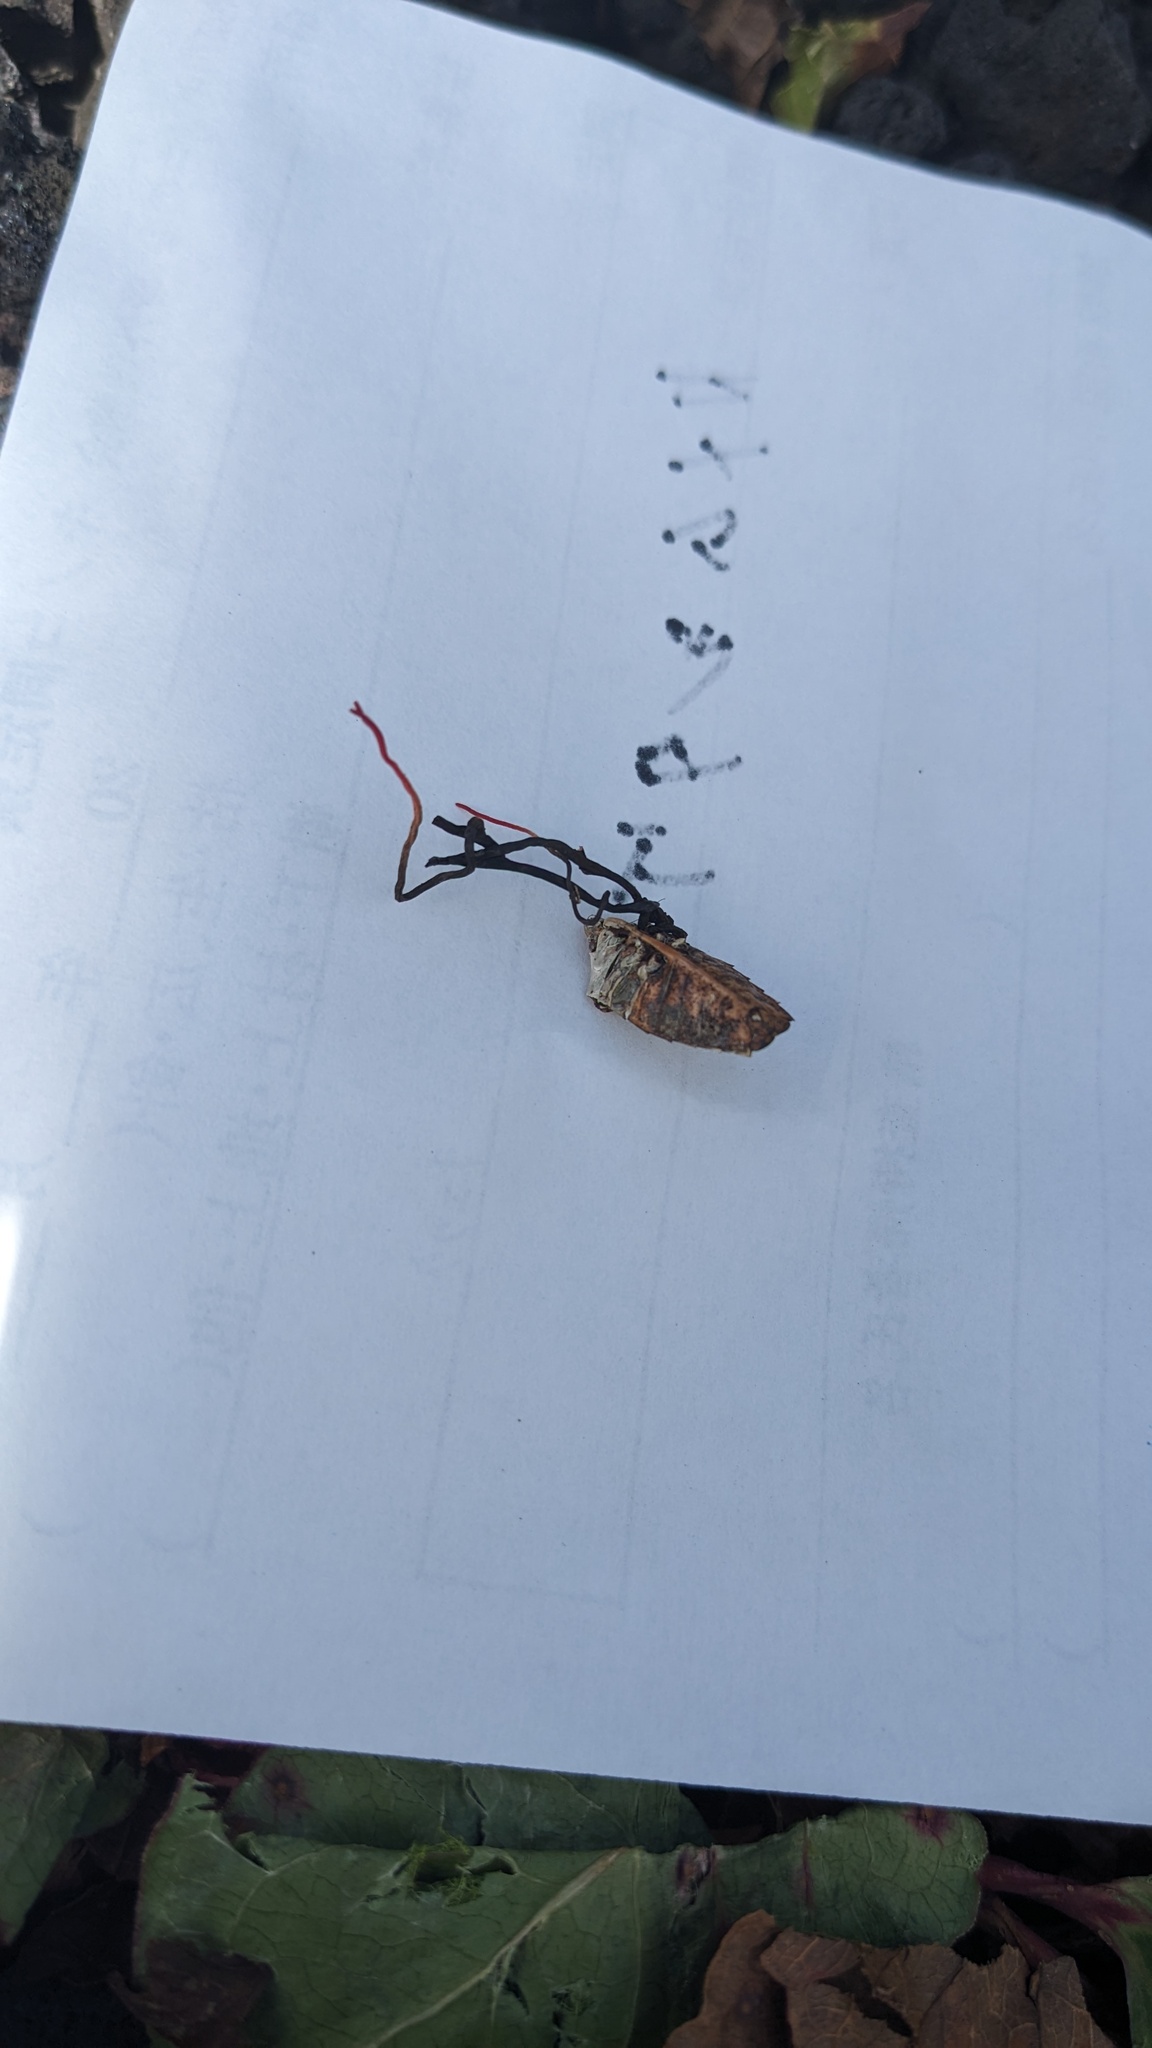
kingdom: Fungi
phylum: Ascomycota
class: Sordariomycetes
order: Hypocreales
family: Ophiocordycipitaceae
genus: Ophiocordyceps
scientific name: Ophiocordyceps nutans
